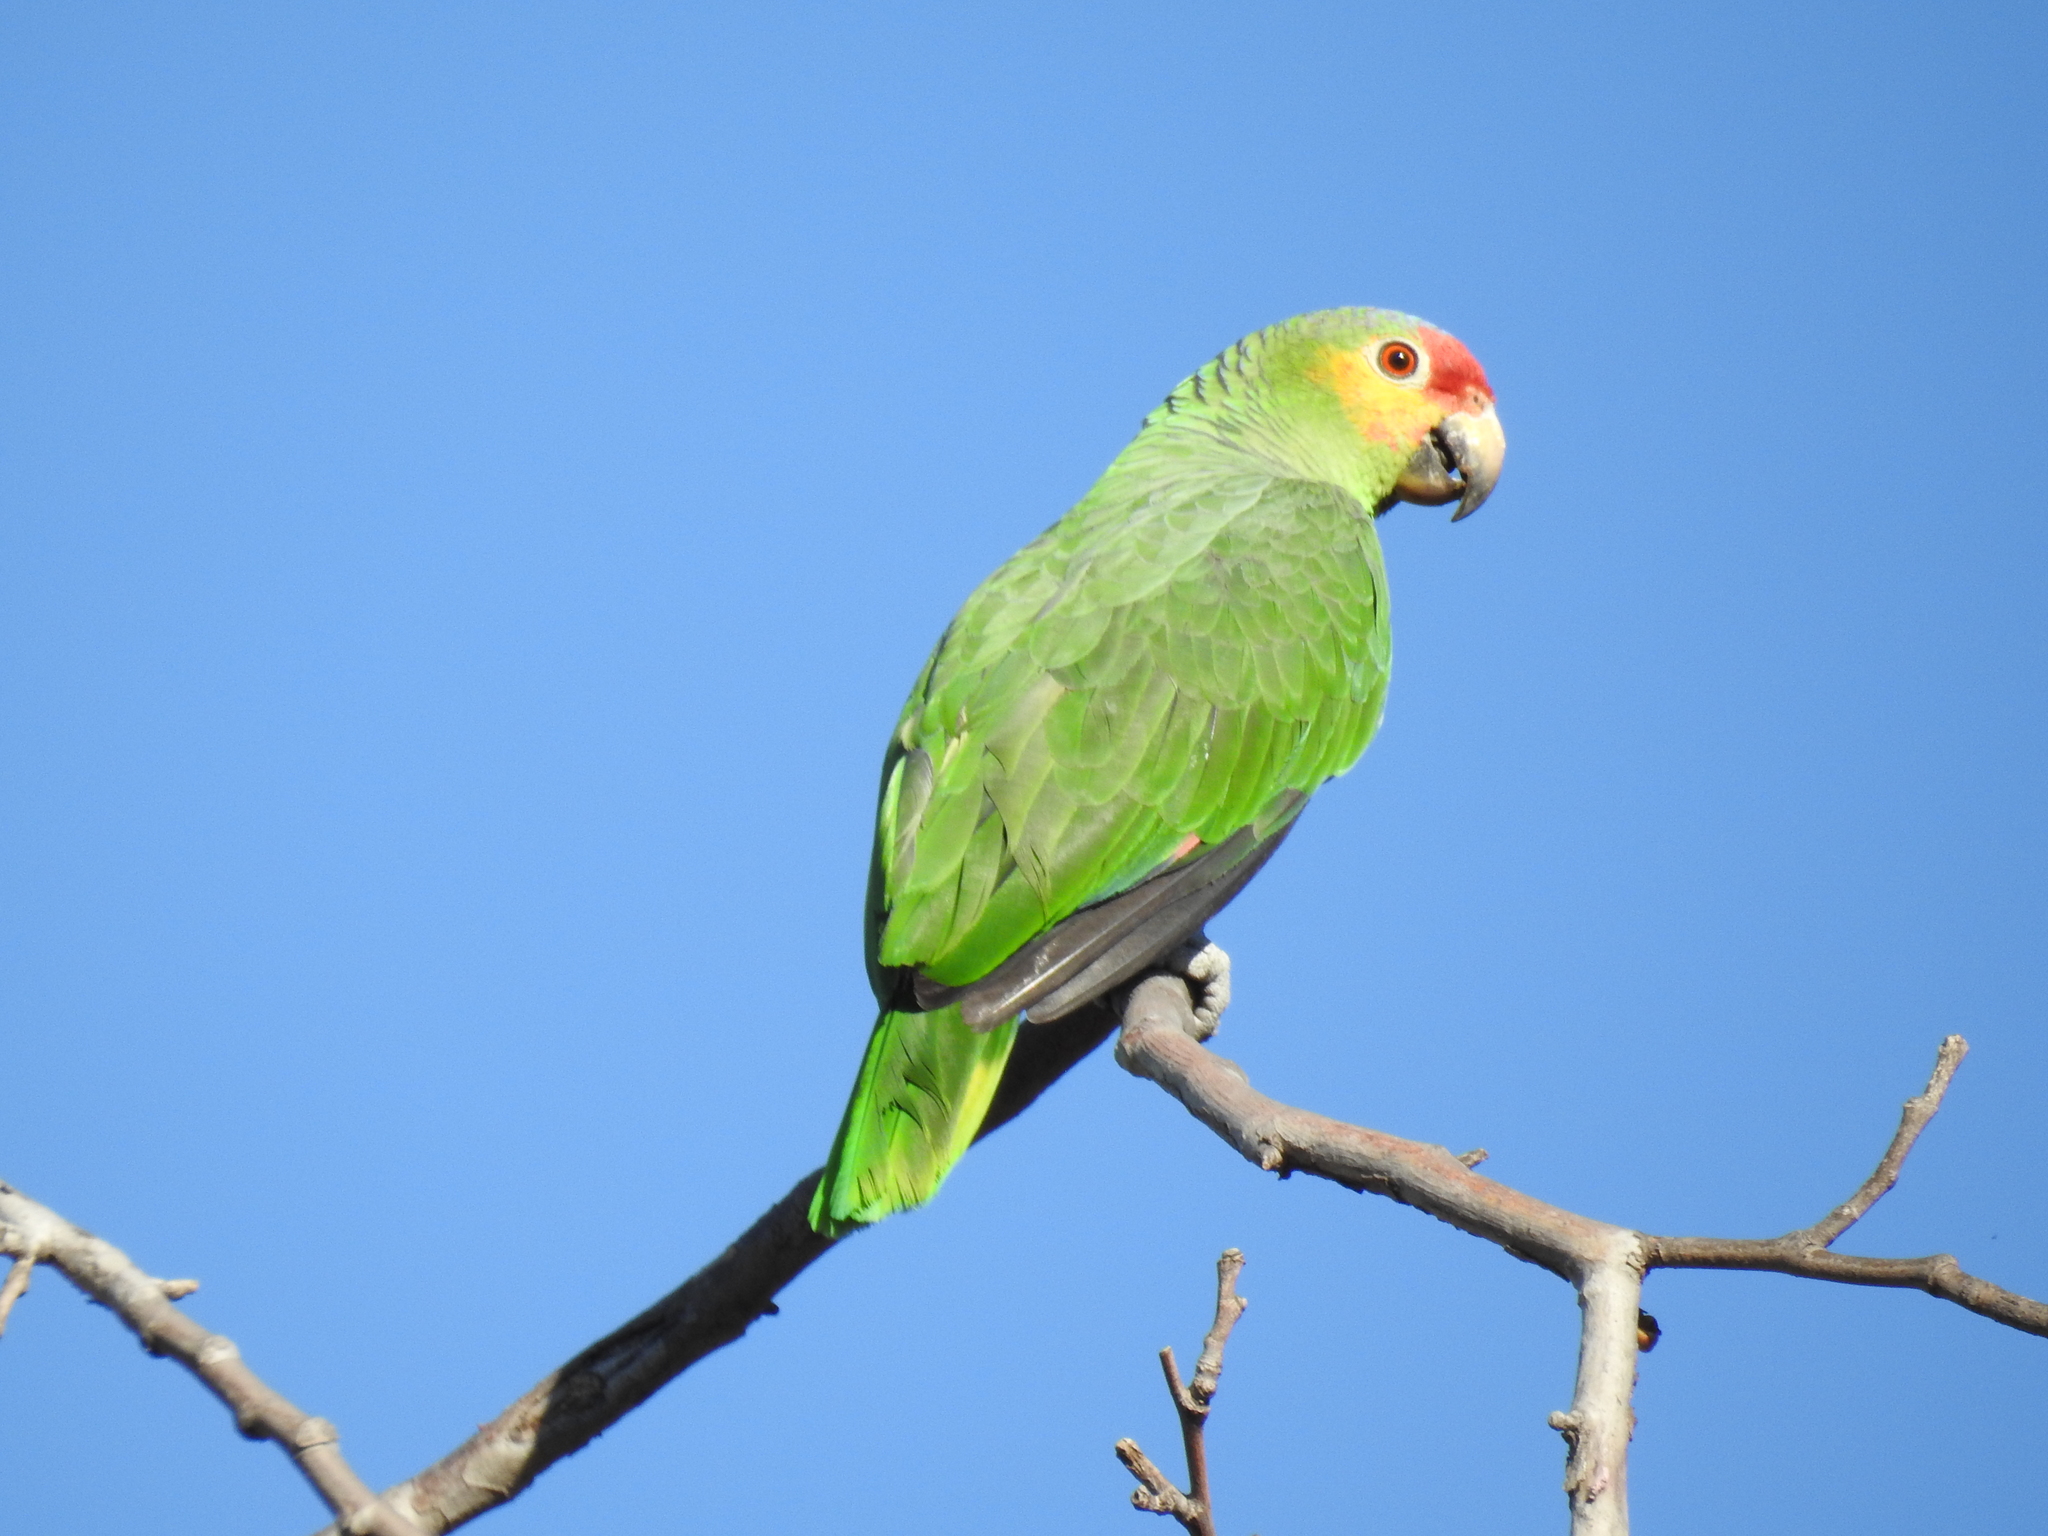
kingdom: Animalia
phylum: Chordata
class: Aves
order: Psittaciformes
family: Psittacidae
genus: Amazona
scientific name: Amazona autumnalis
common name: Red-lored amazon
